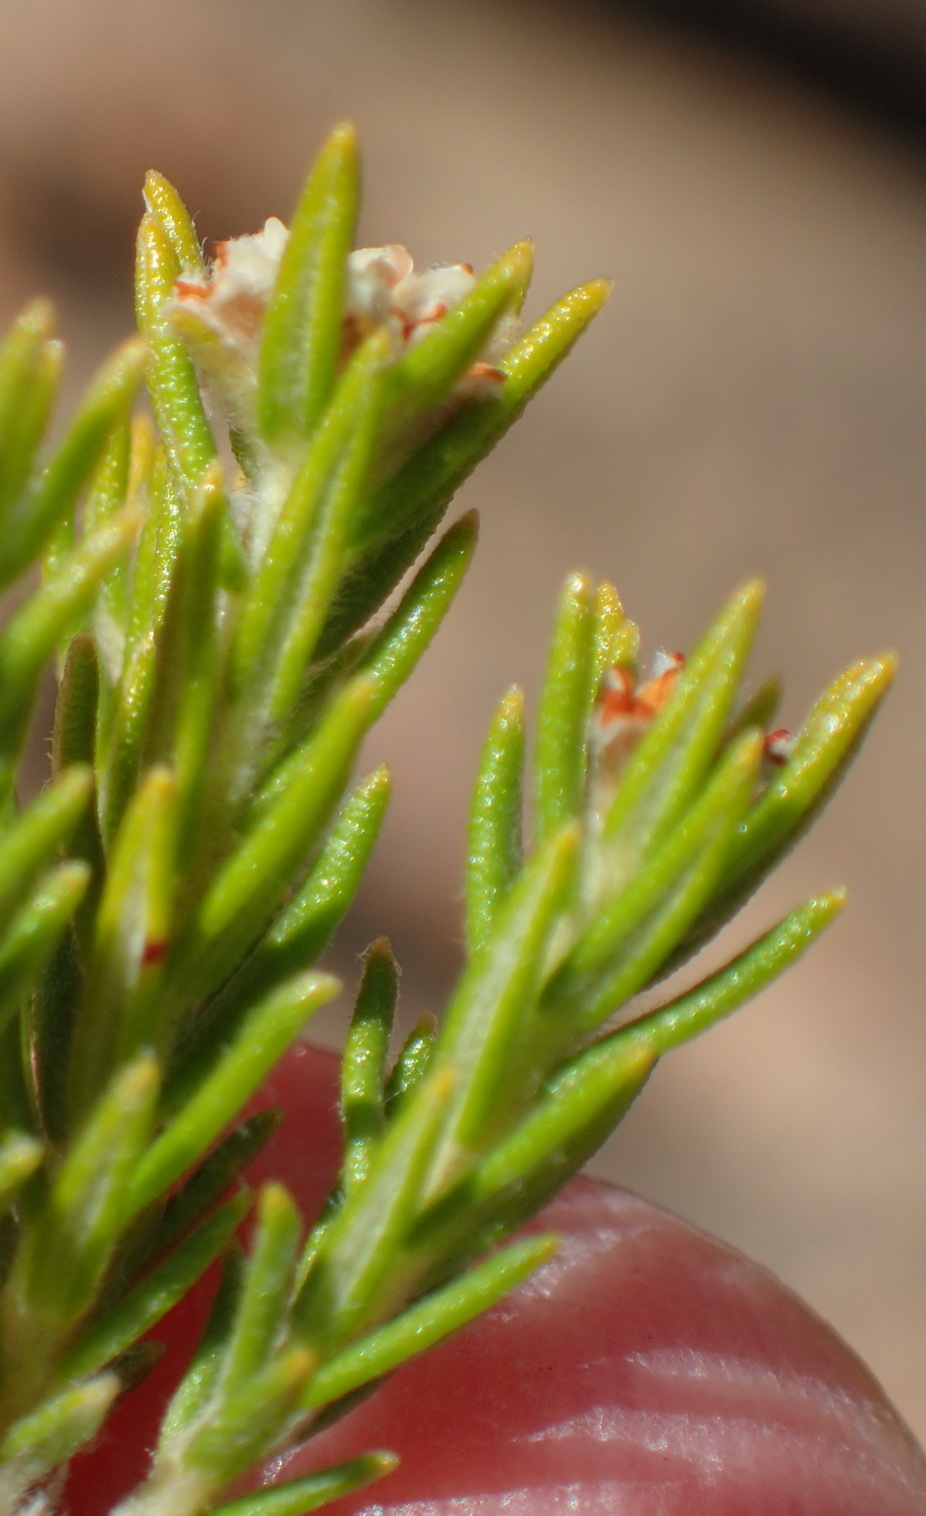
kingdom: Plantae
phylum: Tracheophyta
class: Magnoliopsida
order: Rosales
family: Rhamnaceae
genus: Phylica
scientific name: Phylica wittebergensis
